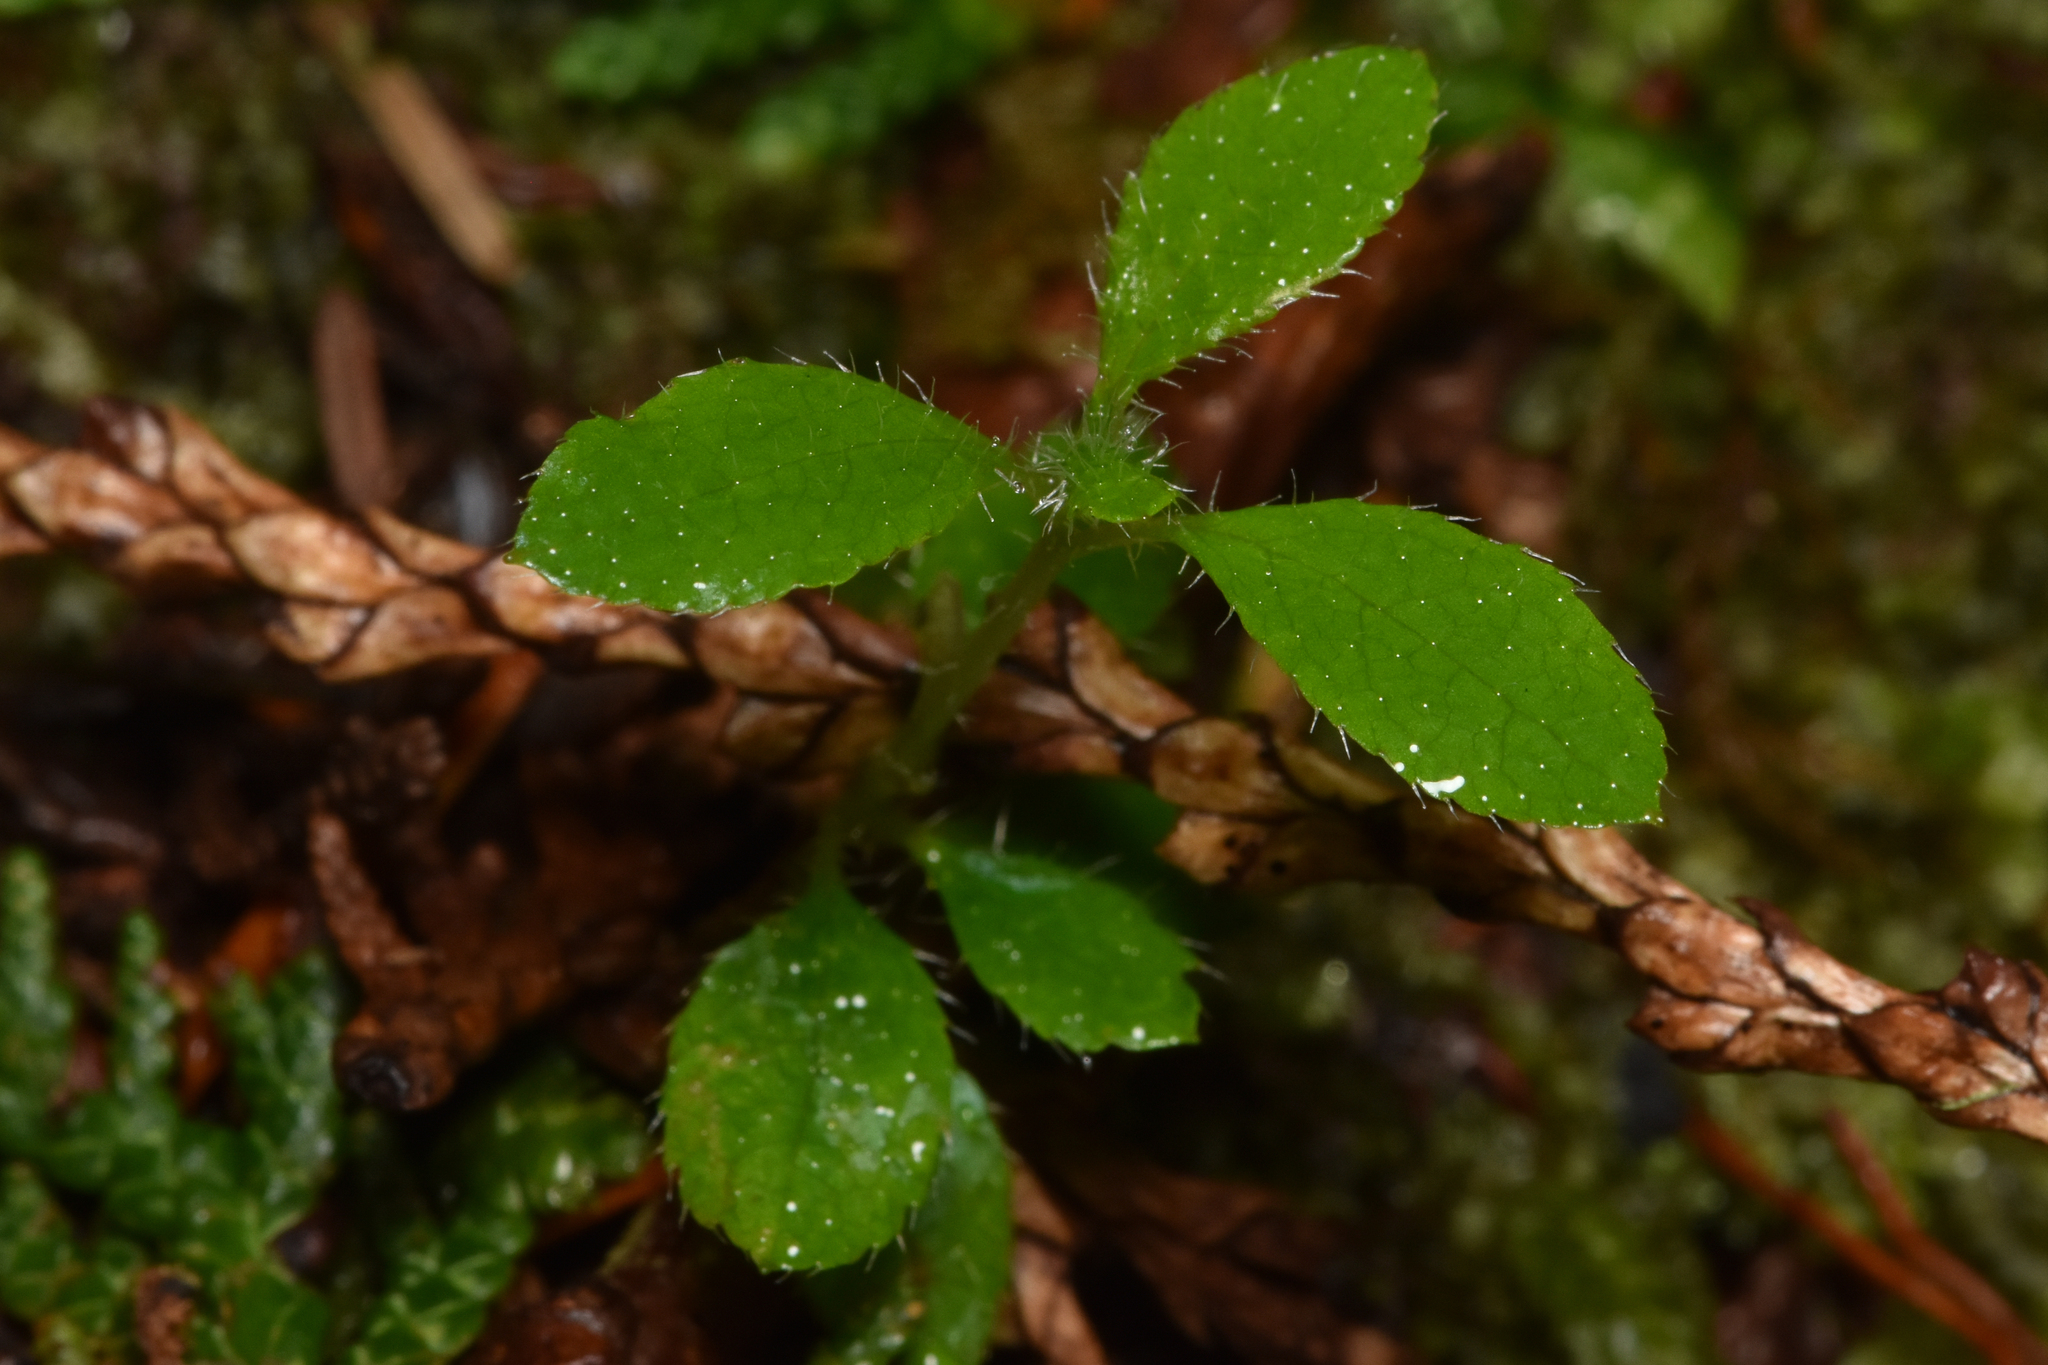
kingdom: Plantae
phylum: Tracheophyta
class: Magnoliopsida
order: Dipsacales
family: Caprifoliaceae
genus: Linnaea
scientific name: Linnaea borealis
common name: Twinflower
